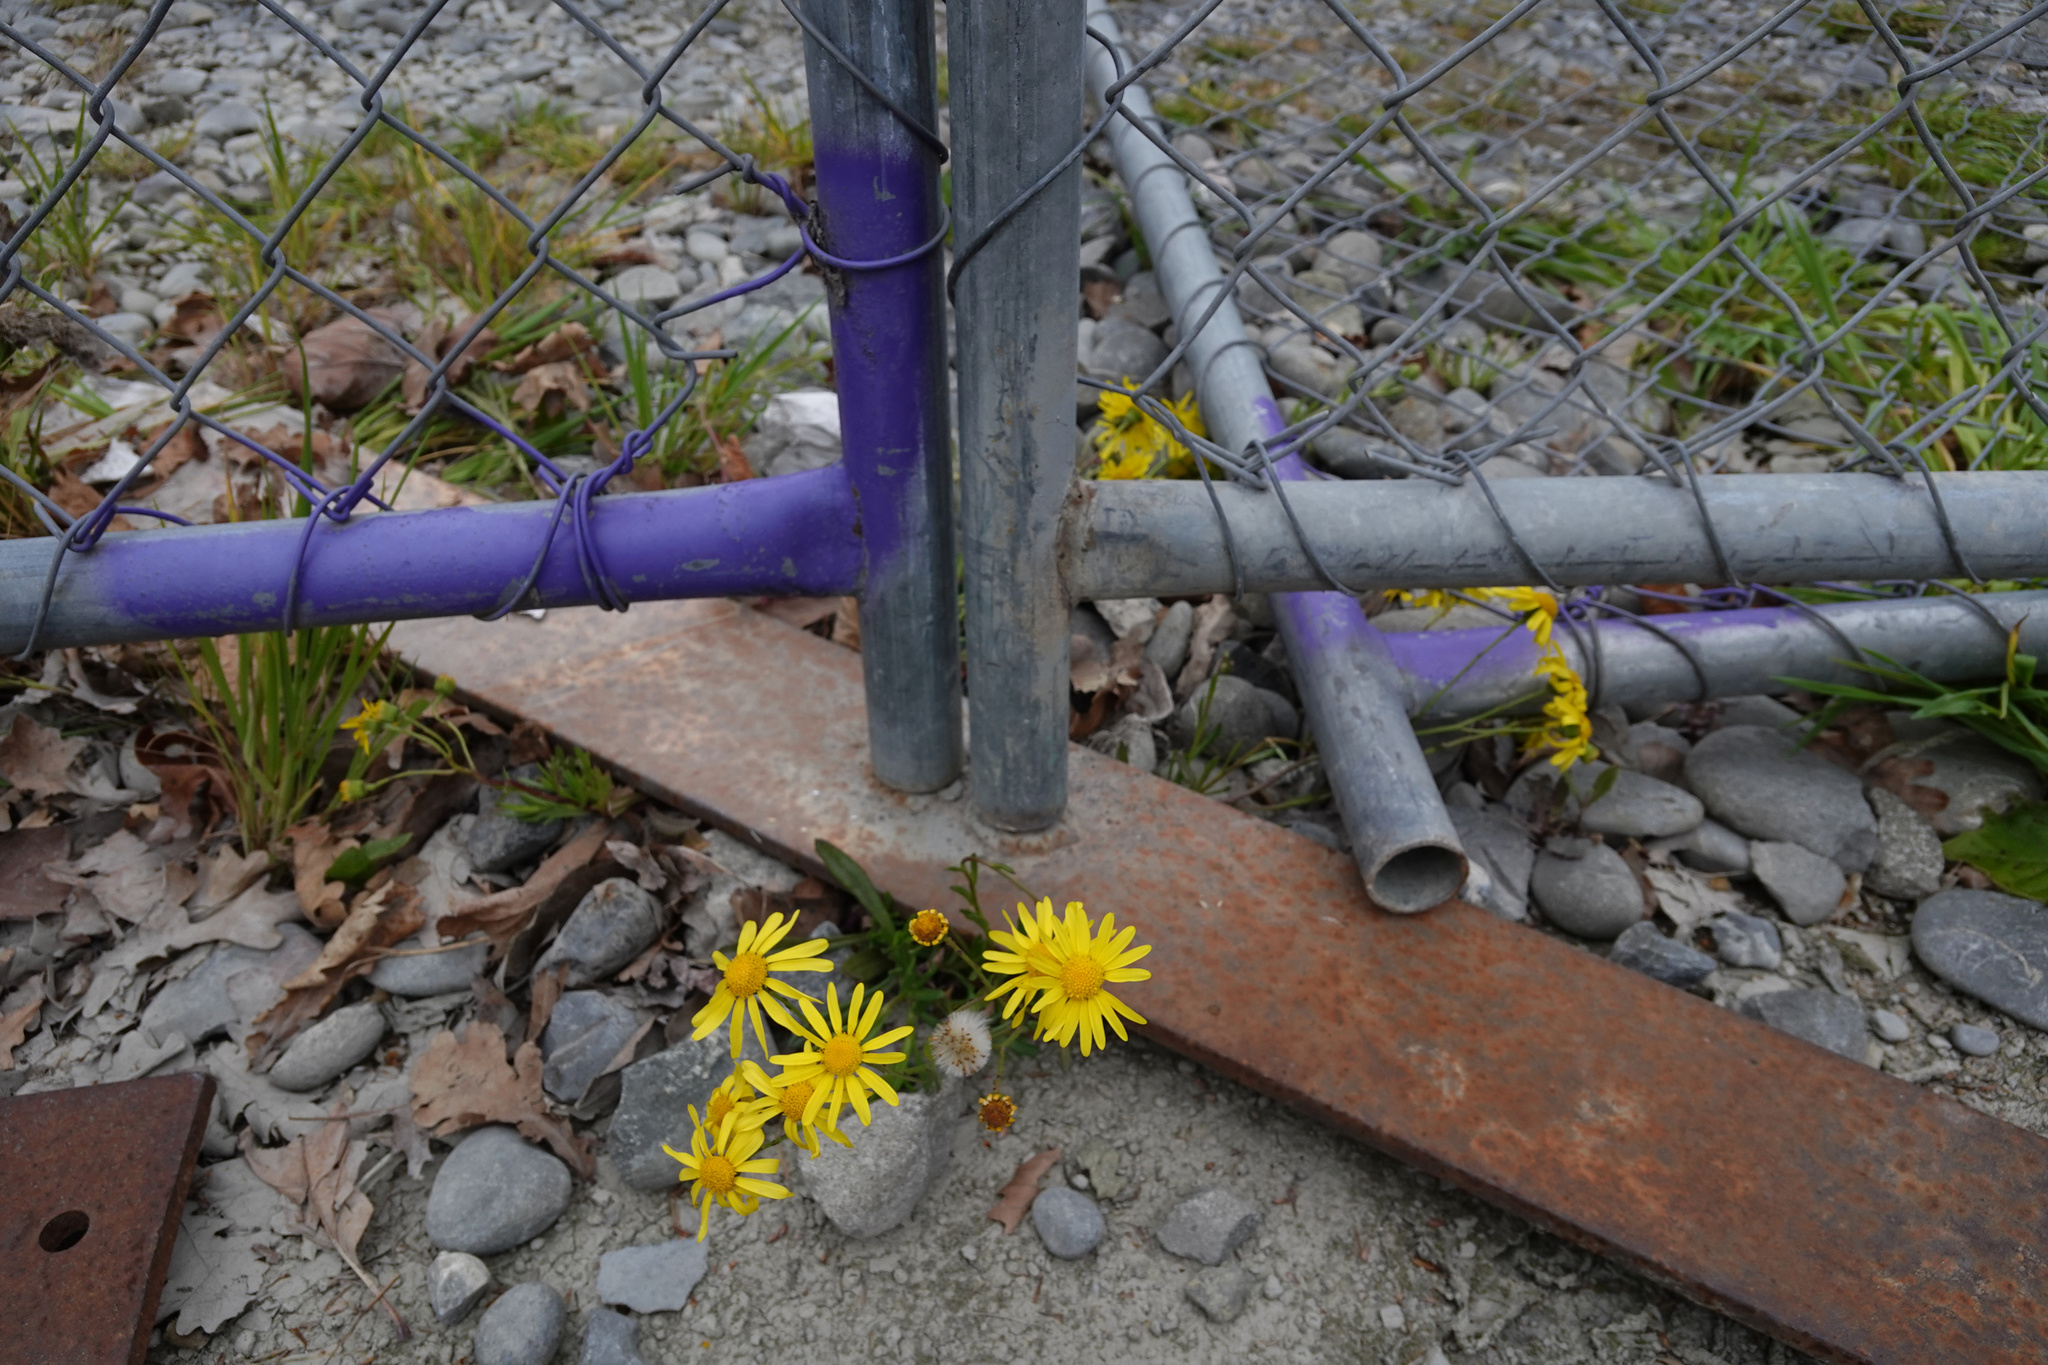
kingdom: Plantae
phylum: Tracheophyta
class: Magnoliopsida
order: Asterales
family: Asteraceae
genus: Senecio
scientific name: Senecio skirrhodon
